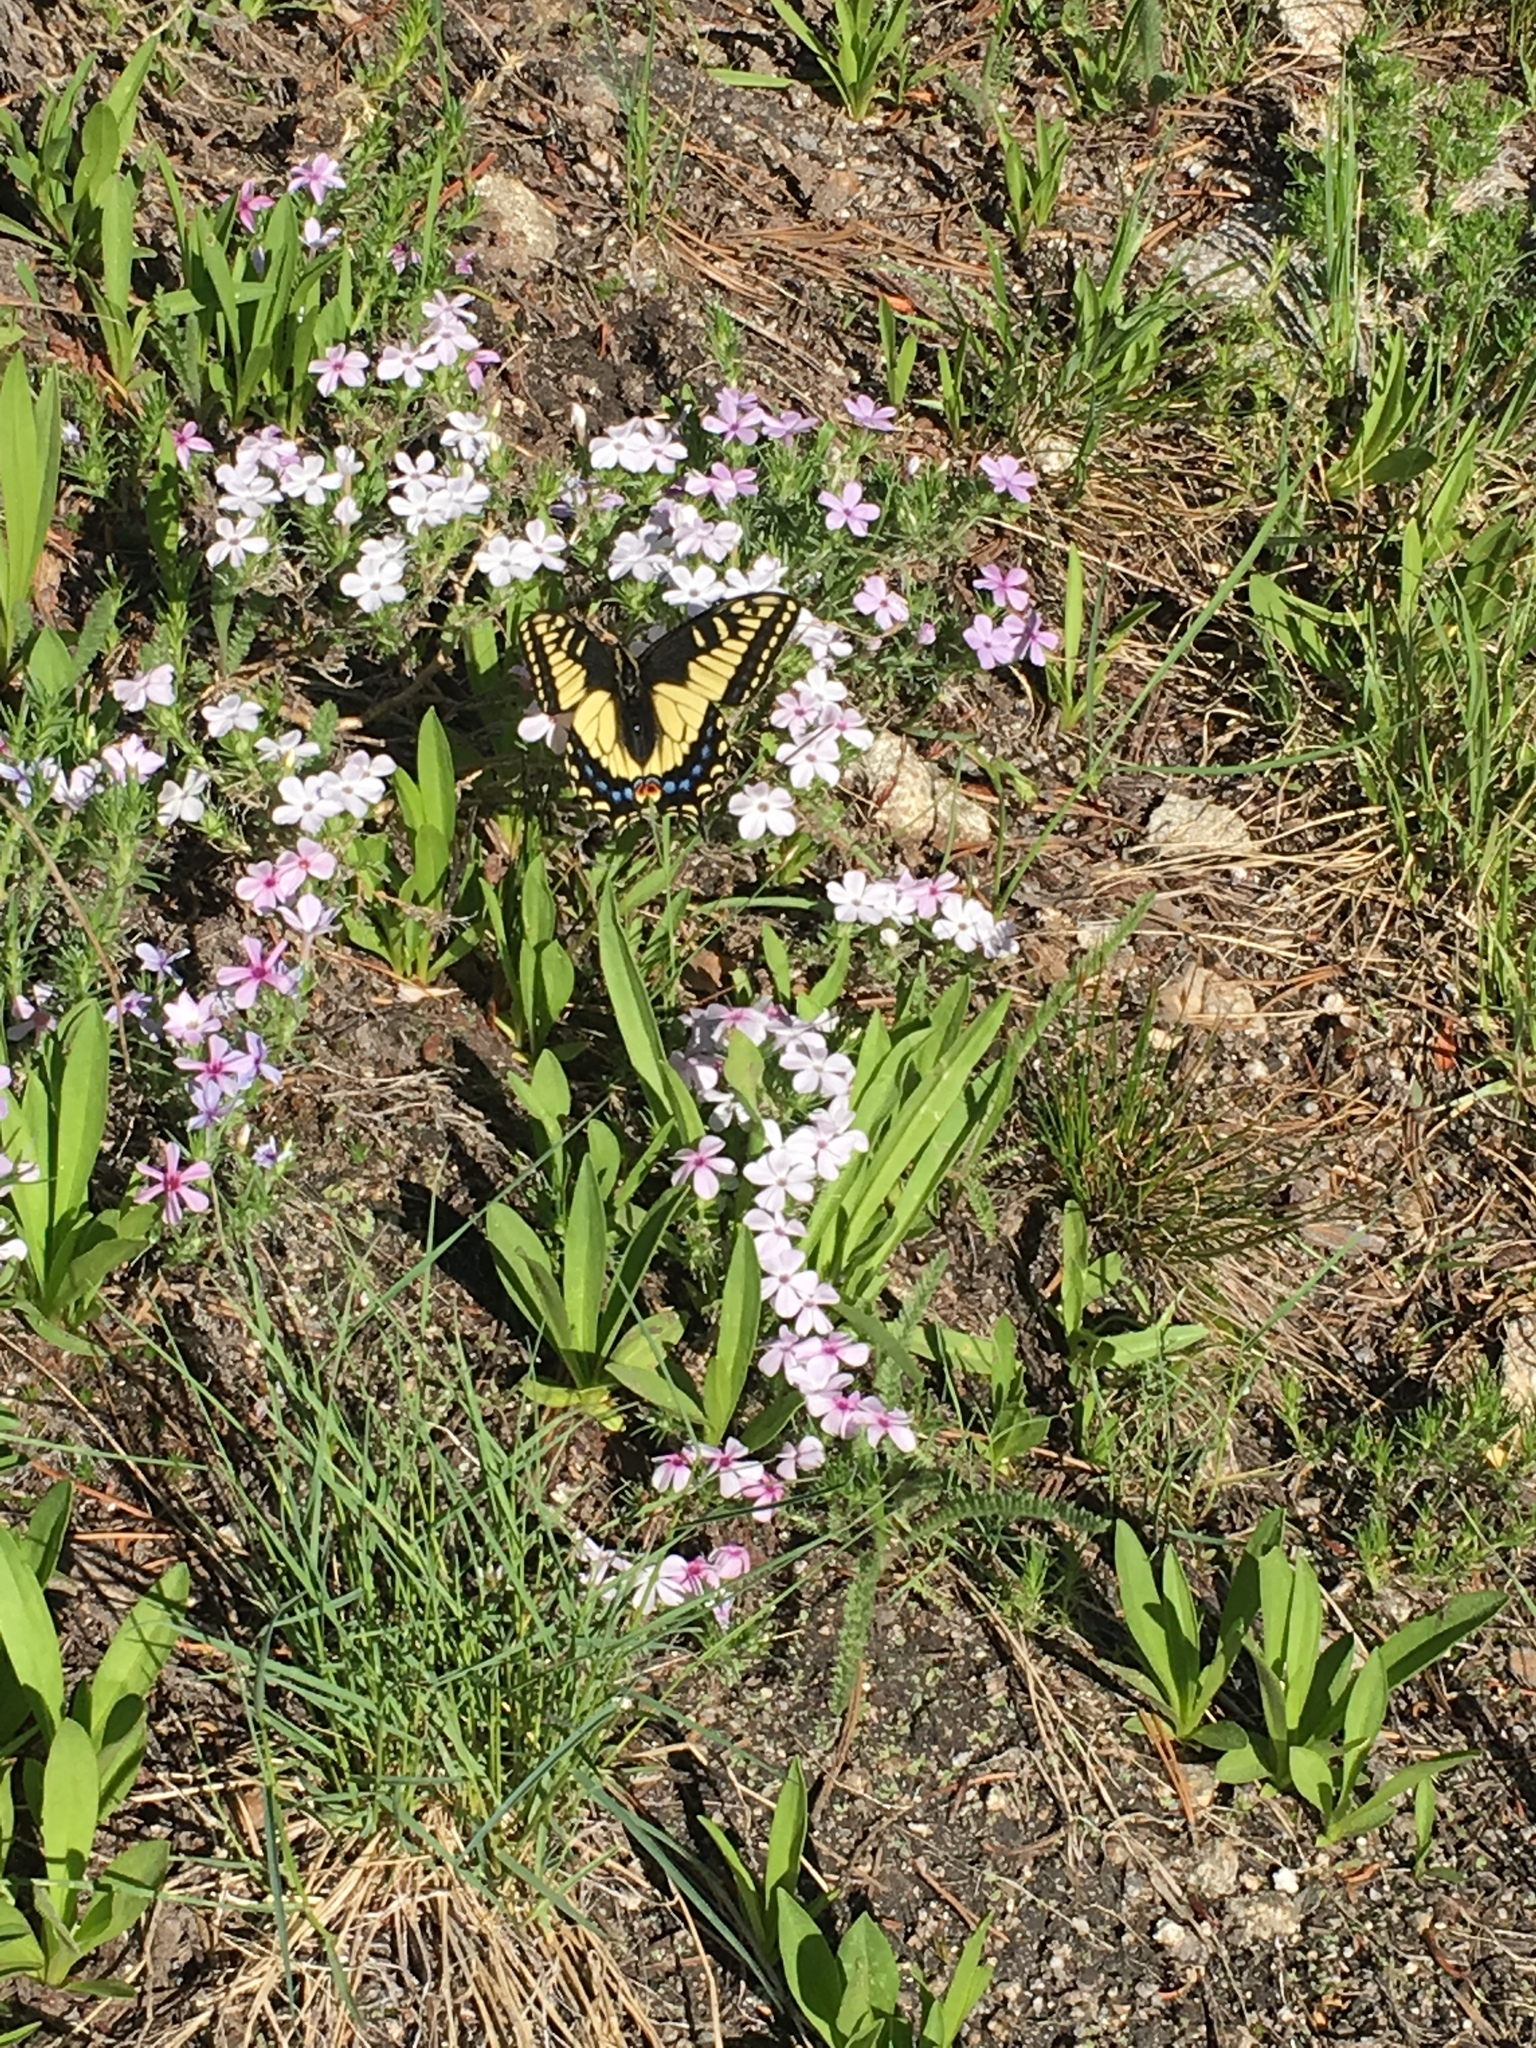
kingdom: Animalia
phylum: Arthropoda
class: Insecta
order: Lepidoptera
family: Papilionidae
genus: Papilio
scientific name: Papilio zelicaon
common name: Anise swallowtail
